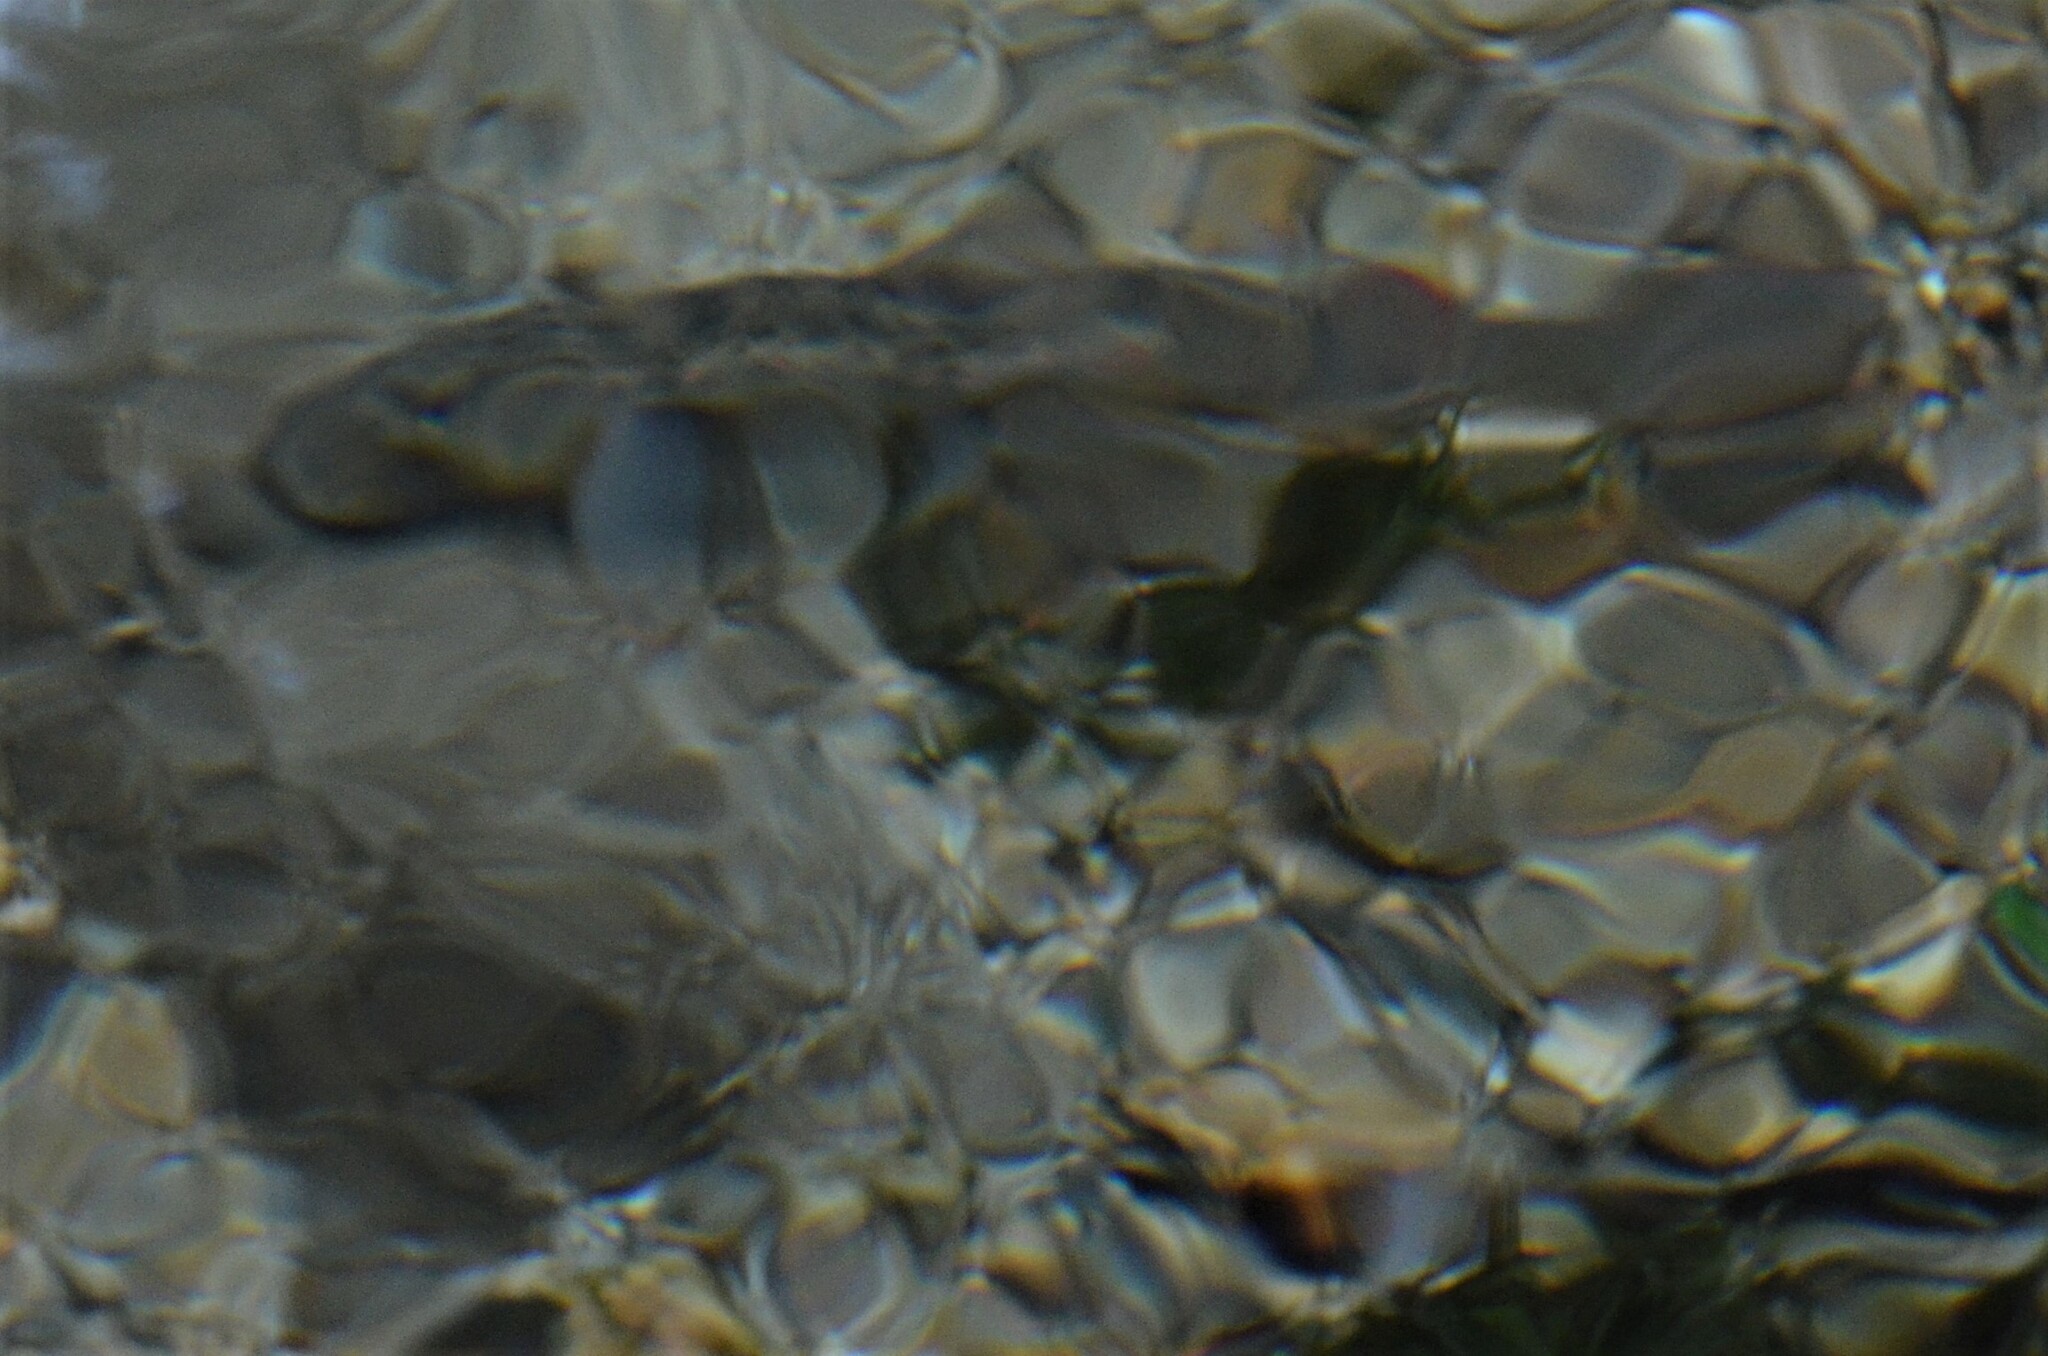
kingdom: Animalia
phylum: Chordata
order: Salmoniformes
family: Salmonidae
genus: Salmo
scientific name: Salmo trutta
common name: Brown trout
